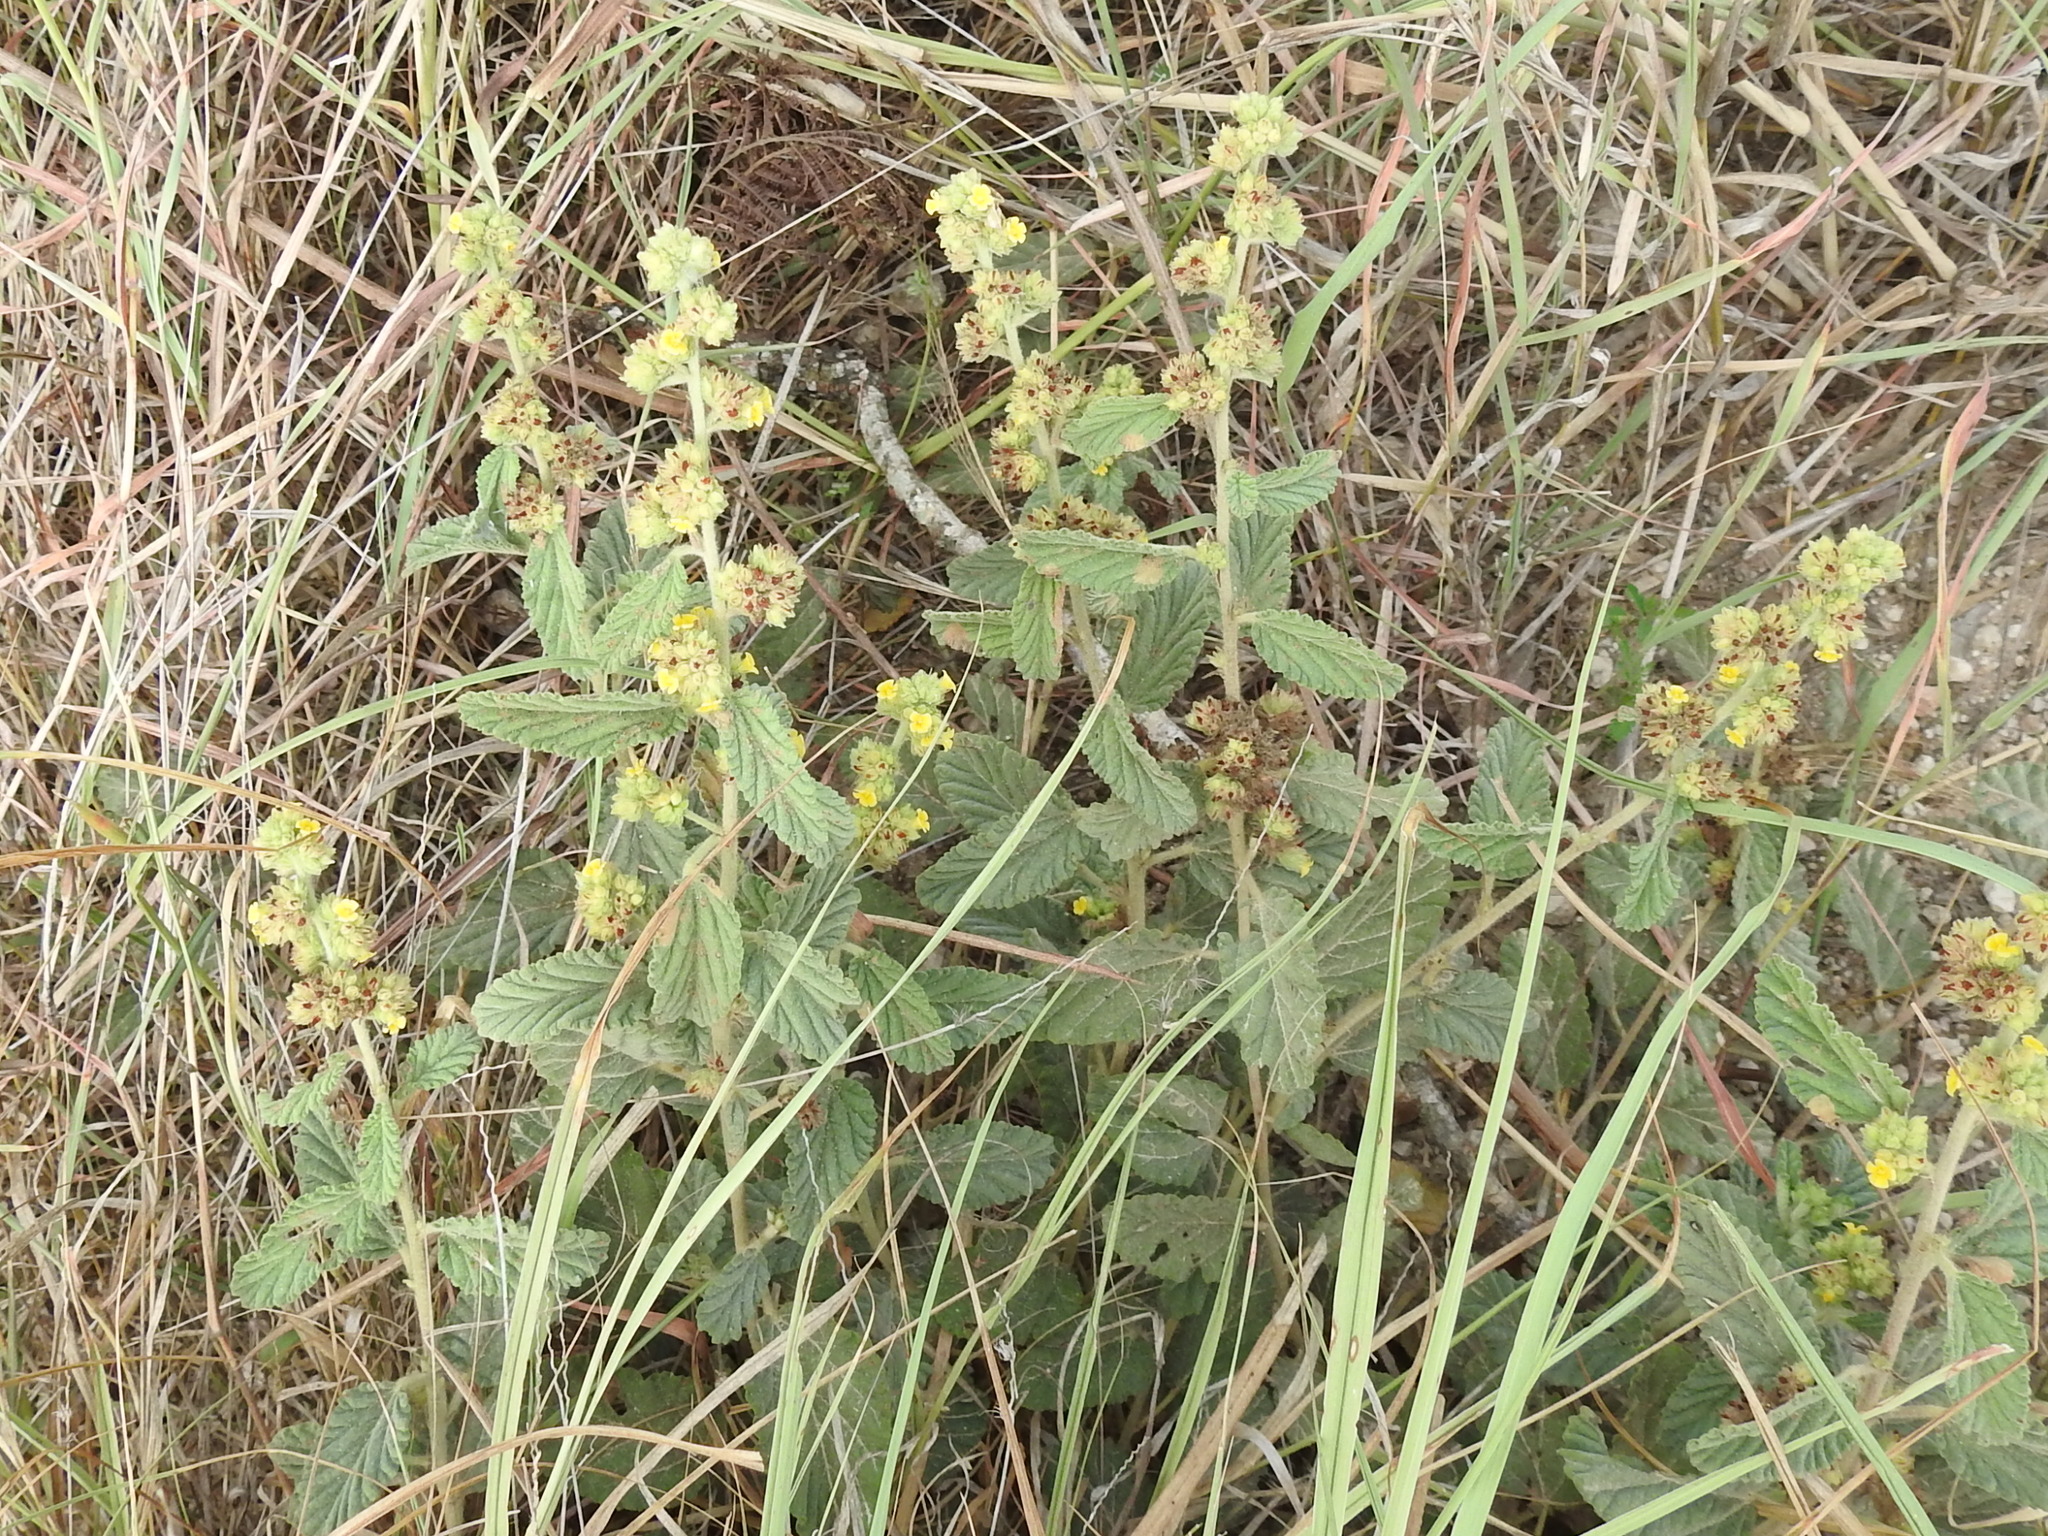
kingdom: Plantae
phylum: Tracheophyta
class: Magnoliopsida
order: Malvales
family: Malvaceae
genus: Waltheria
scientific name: Waltheria indica
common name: Leather-coat
